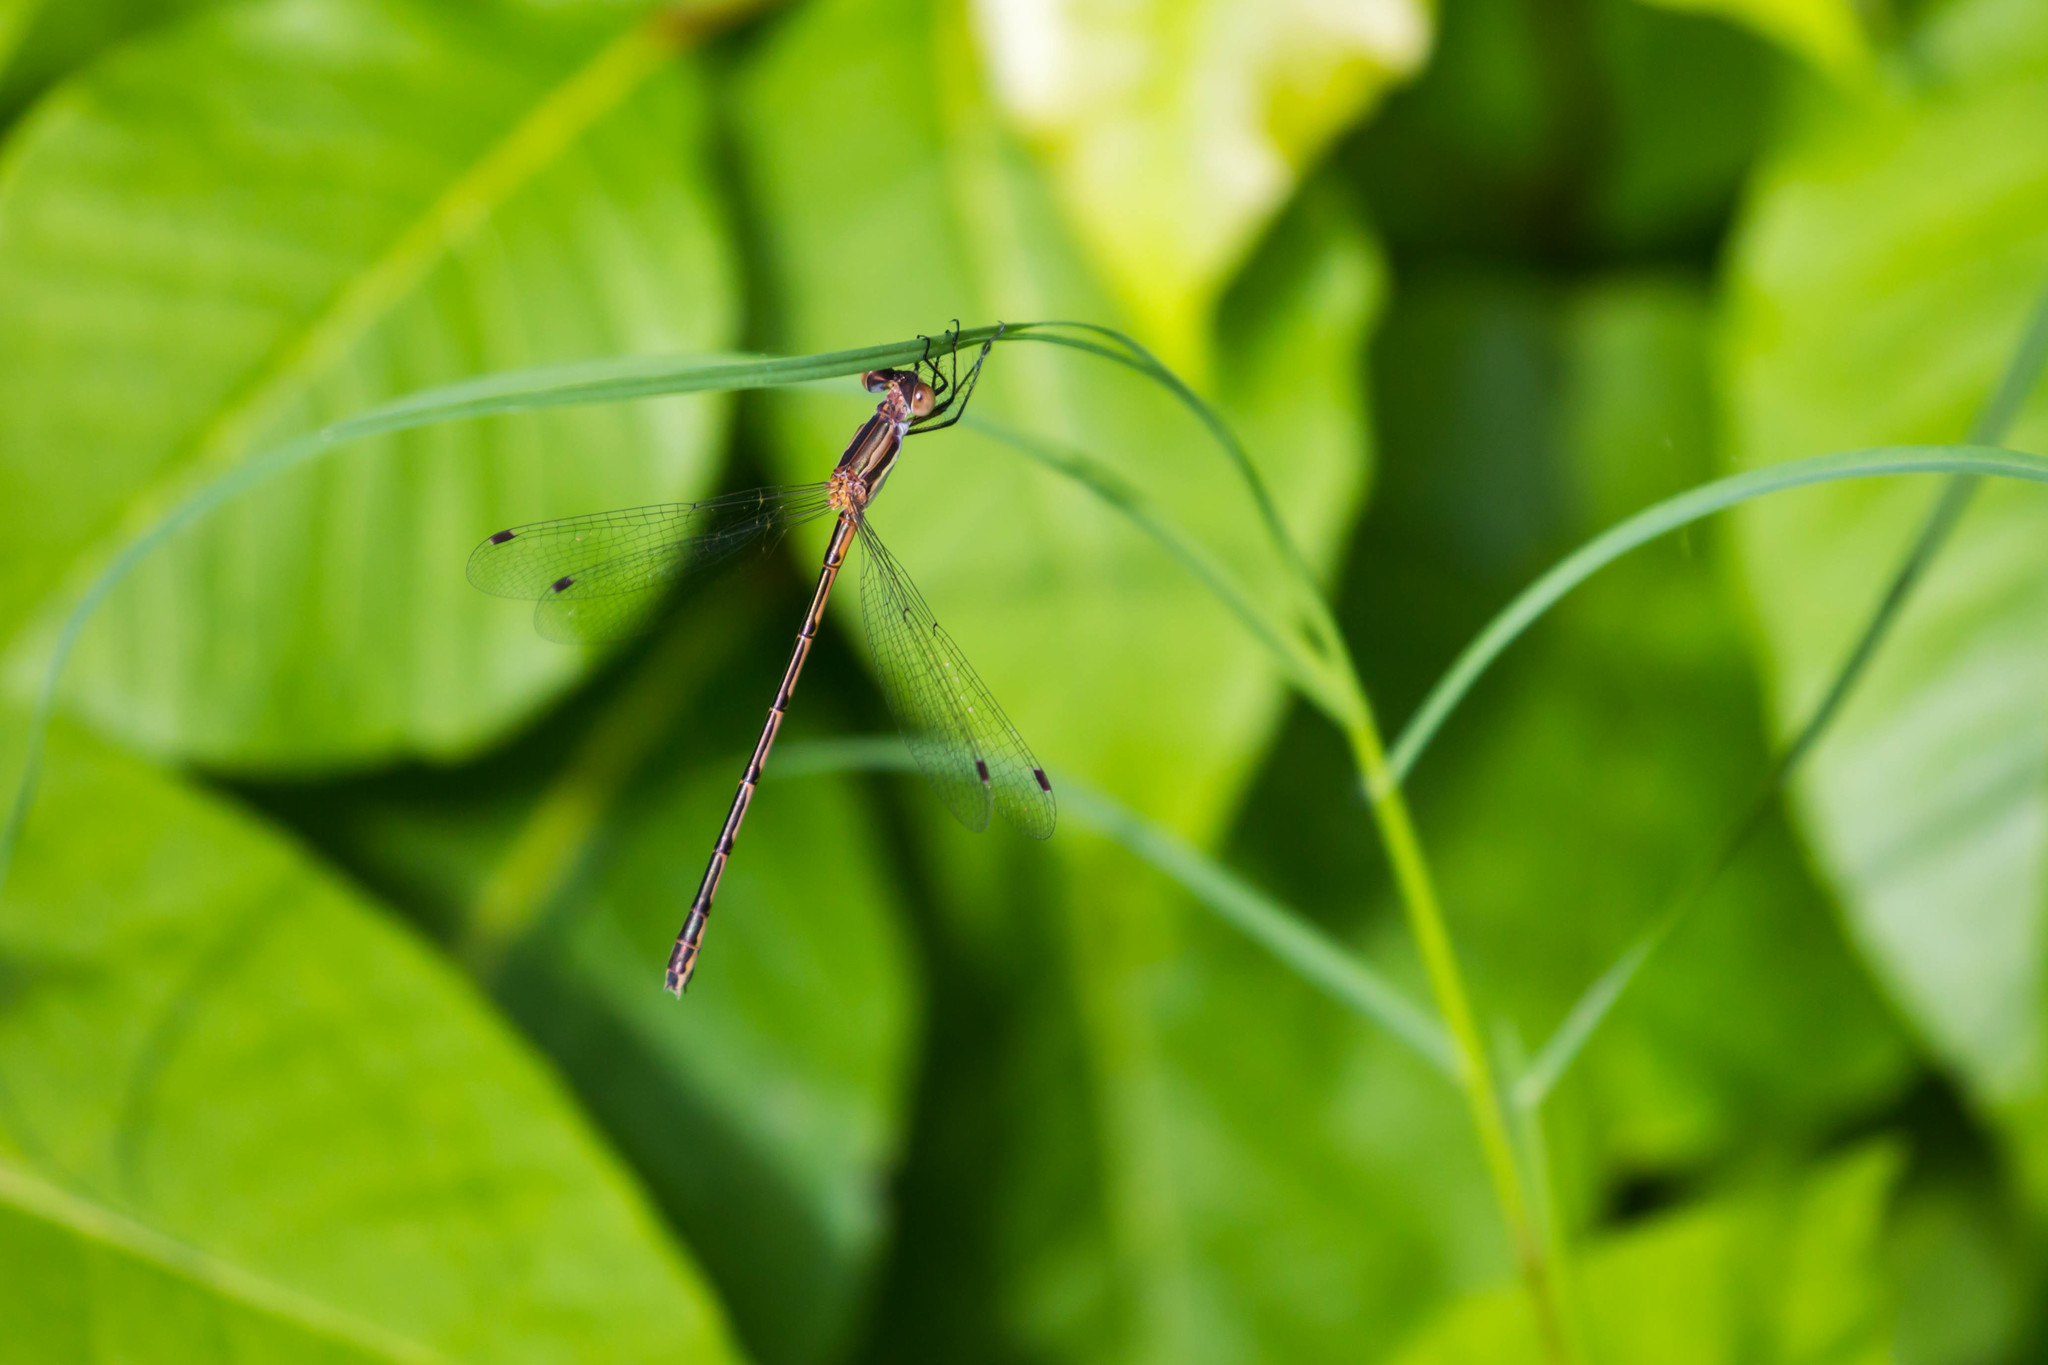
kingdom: Animalia
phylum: Arthropoda
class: Insecta
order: Odonata
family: Lestidae
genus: Lestes
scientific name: Lestes rectangularis
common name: Slender spreadwing
